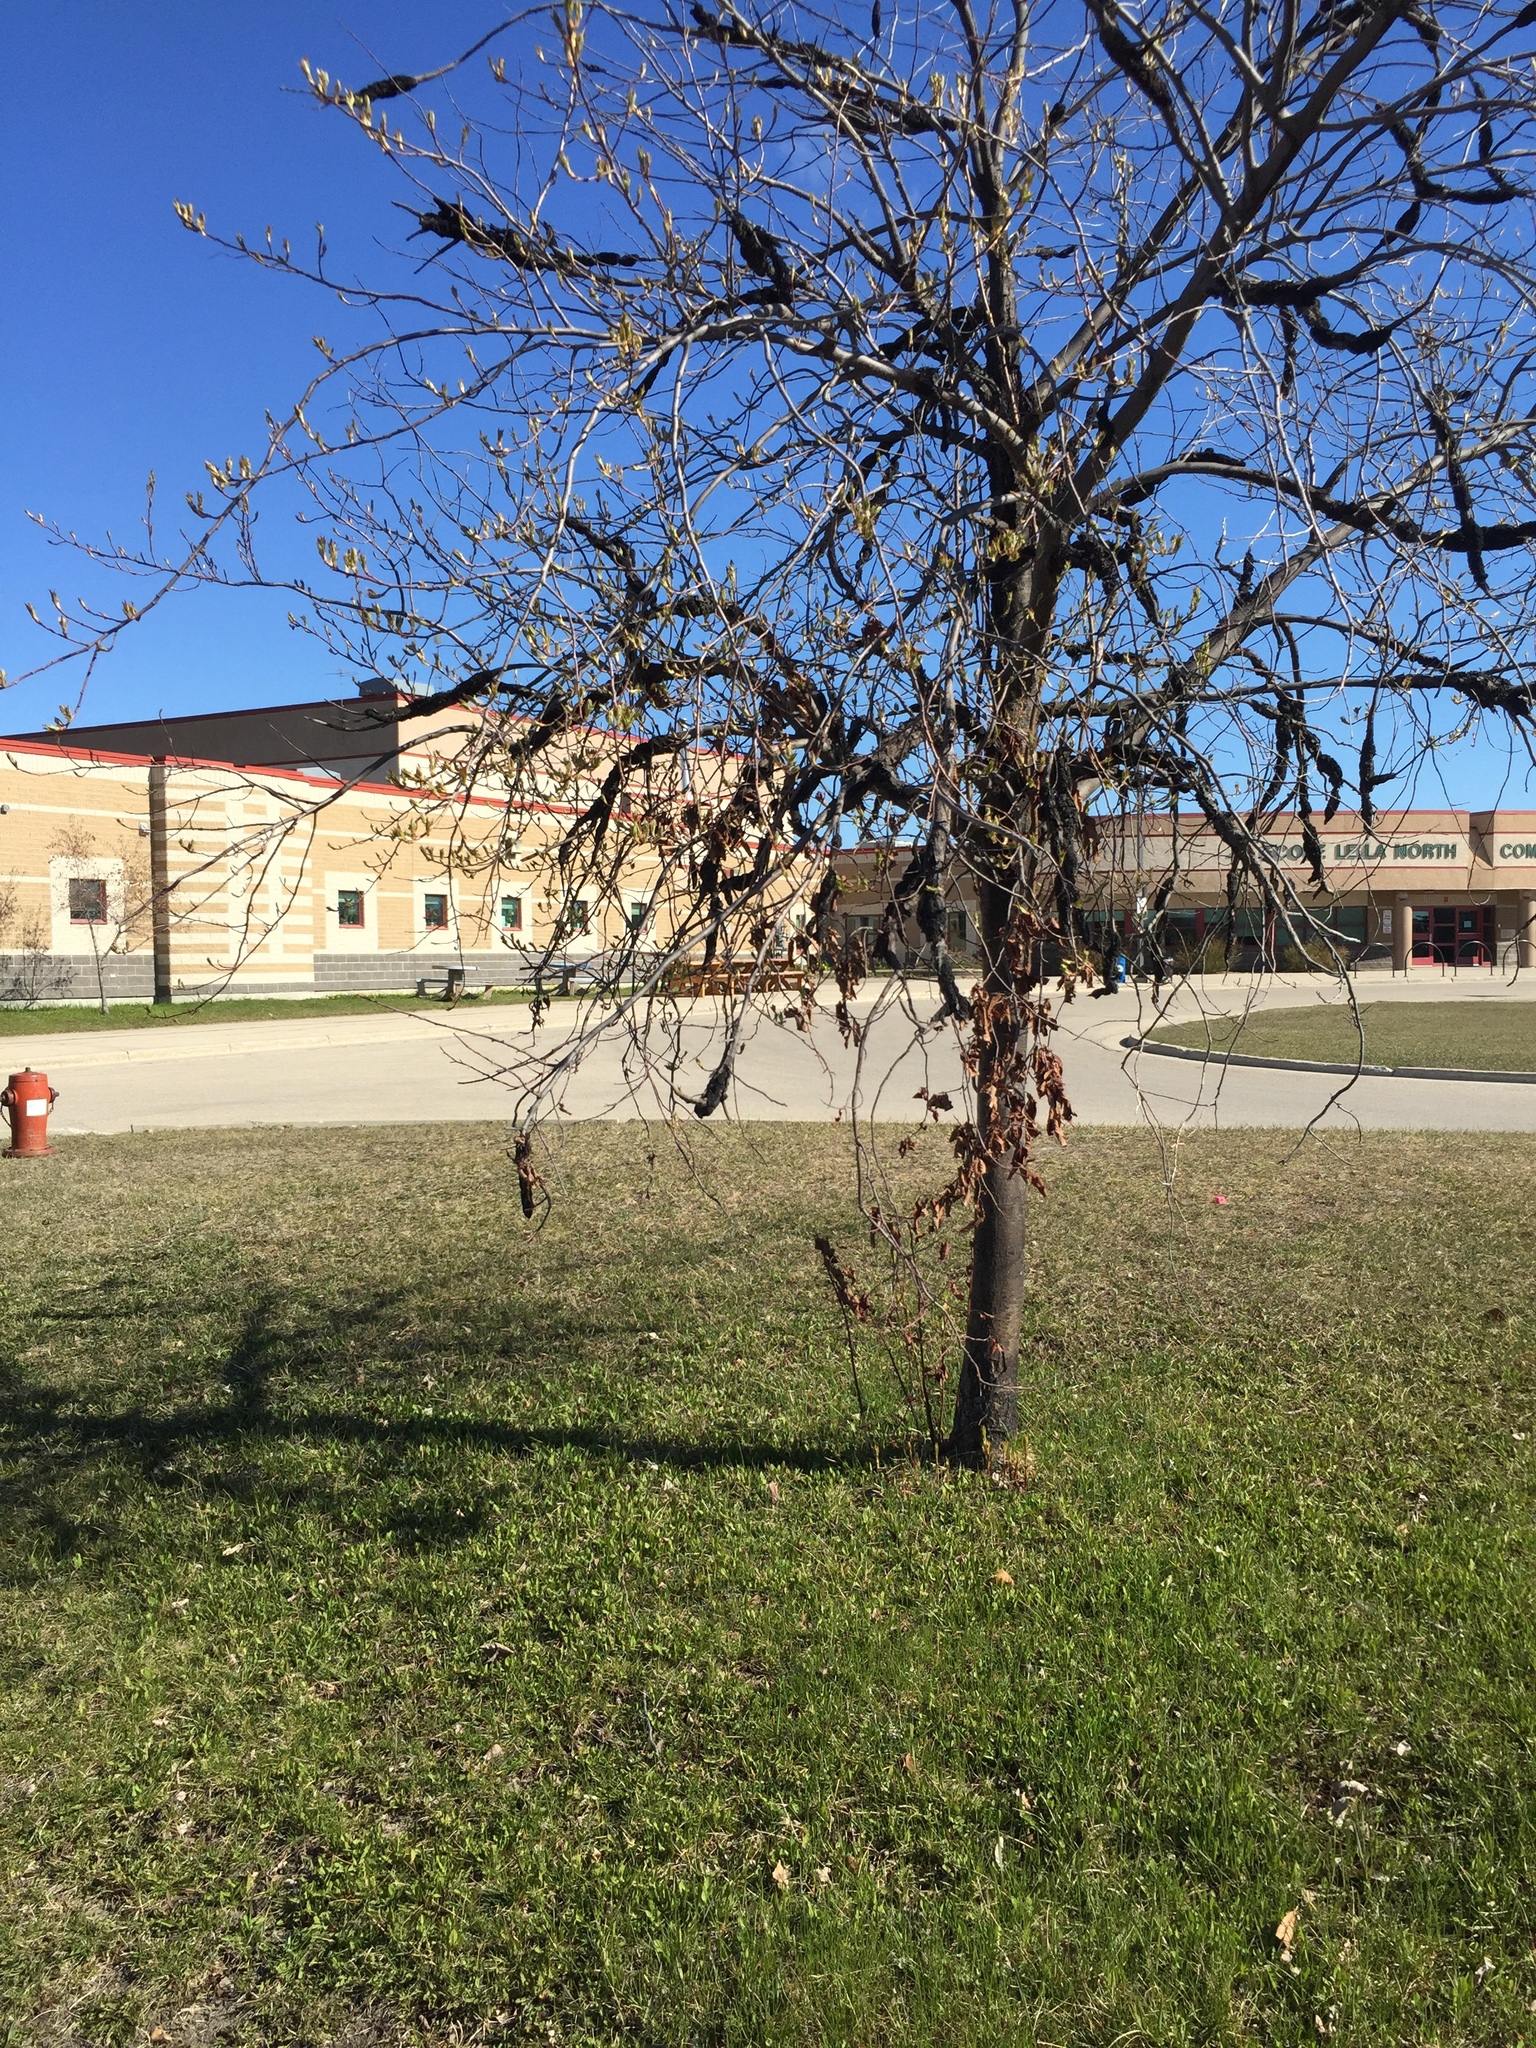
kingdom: Fungi
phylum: Ascomycota
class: Dothideomycetes
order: Venturiales
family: Venturiaceae
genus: Apiosporina
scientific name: Apiosporina morbosa
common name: Black knot
